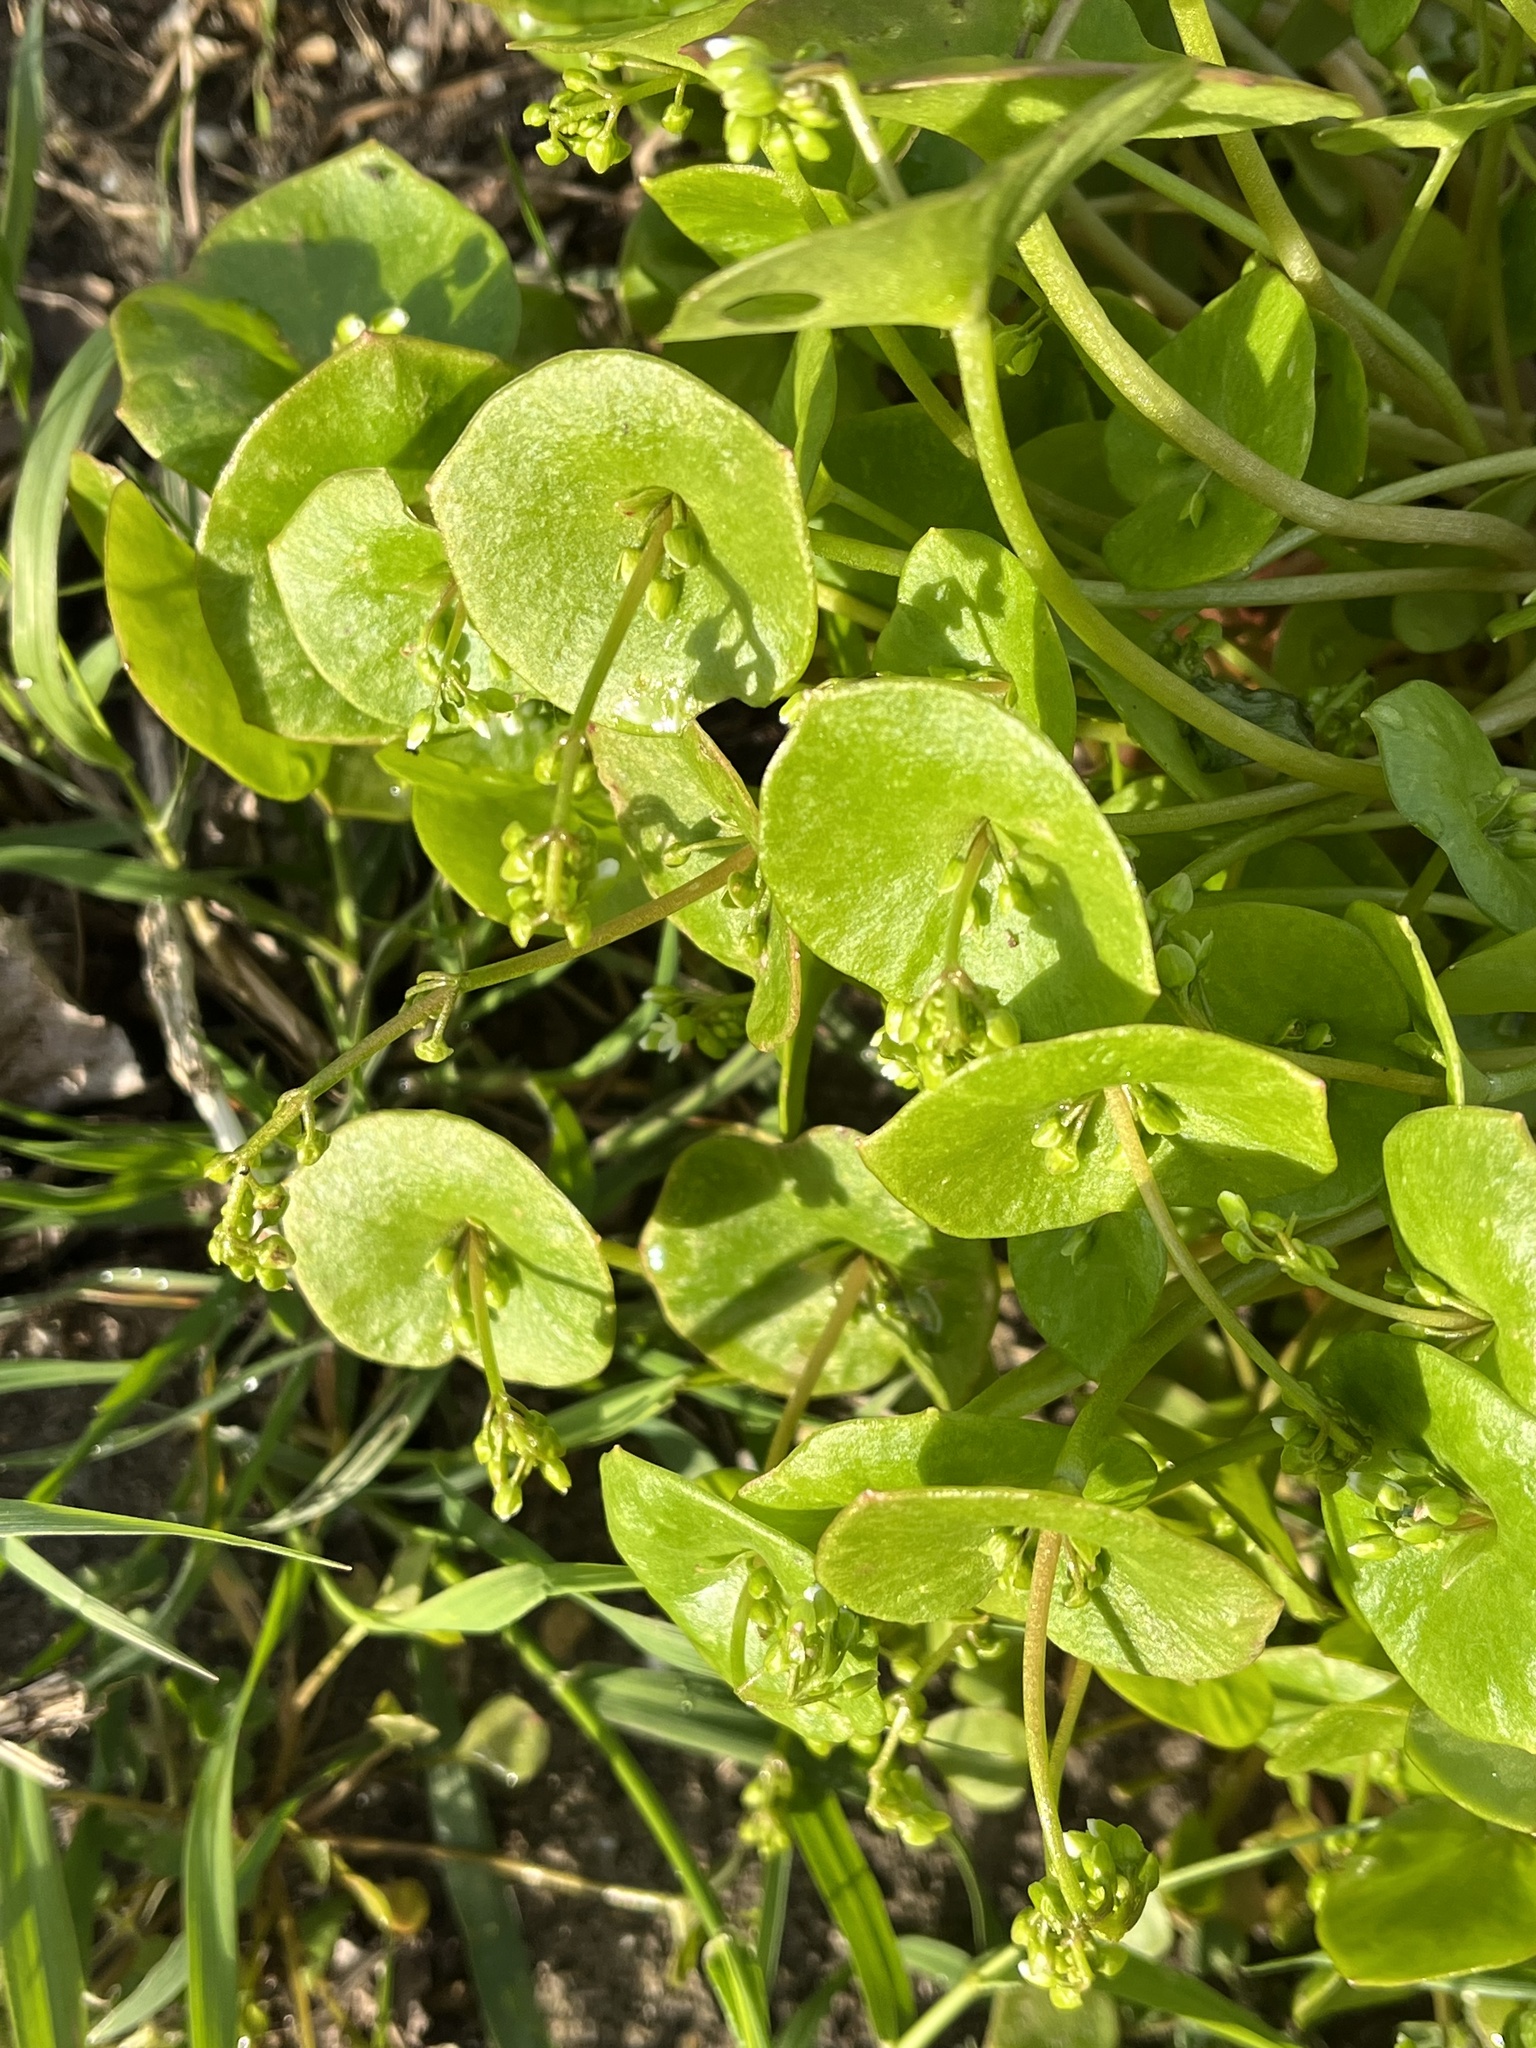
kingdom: Plantae
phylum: Tracheophyta
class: Magnoliopsida
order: Caryophyllales
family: Montiaceae
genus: Claytonia
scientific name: Claytonia perfoliata
